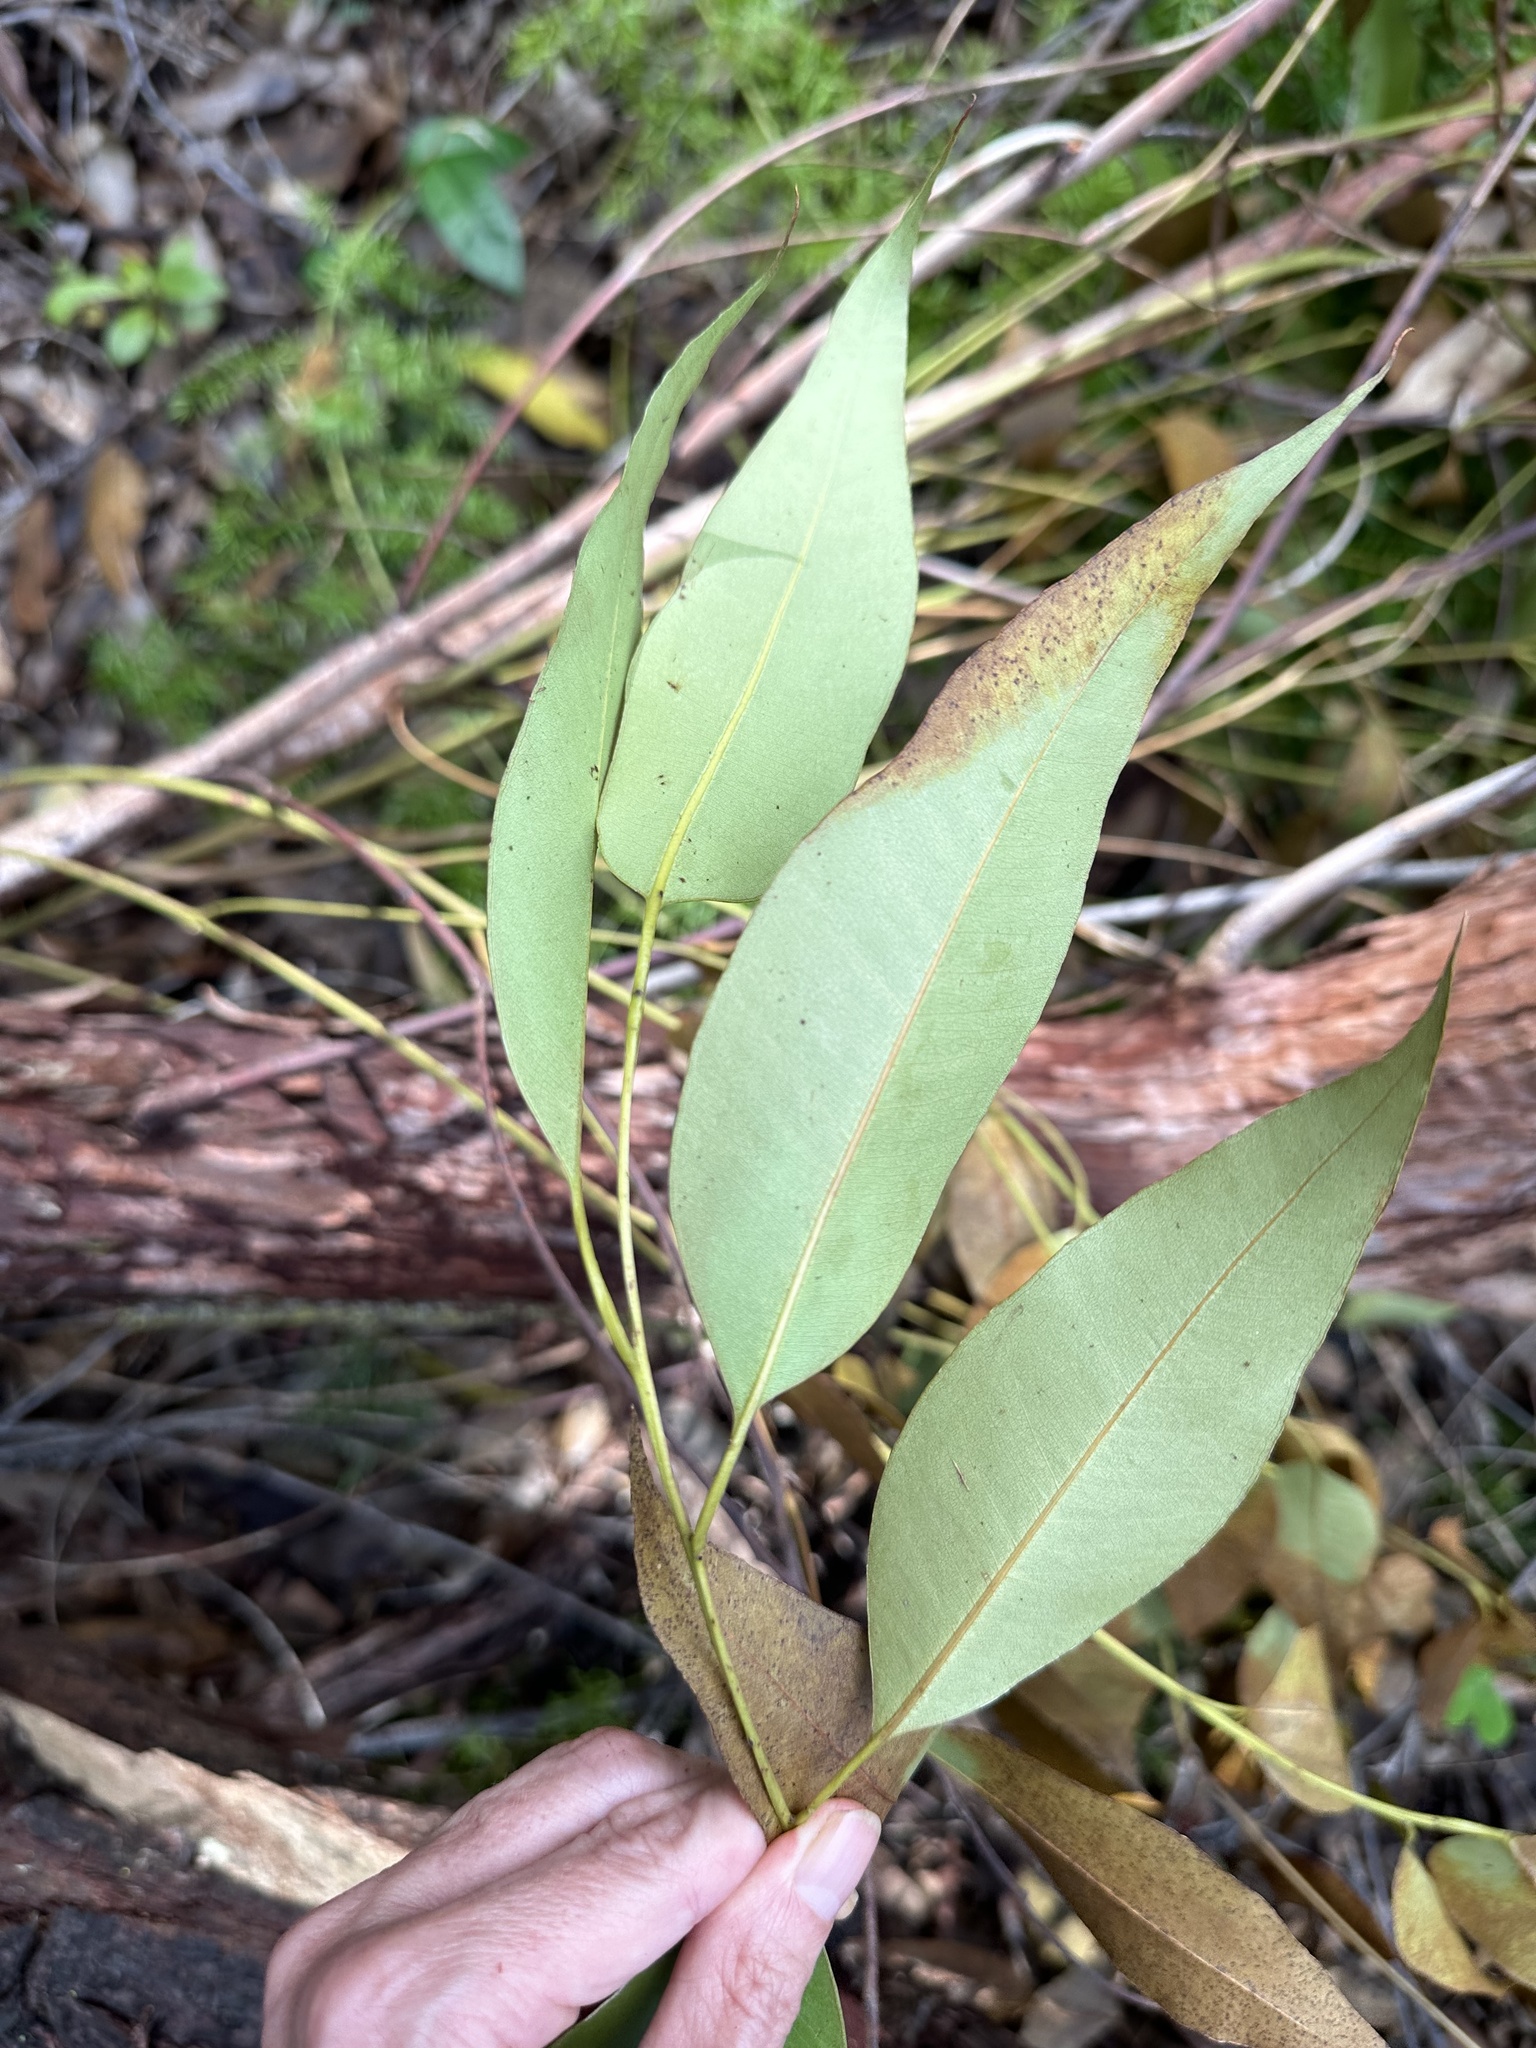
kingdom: Plantae
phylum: Tracheophyta
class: Magnoliopsida
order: Myrtales
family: Myrtaceae
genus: Eucalyptus
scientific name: Eucalyptus robusta
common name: Swampmahogany
